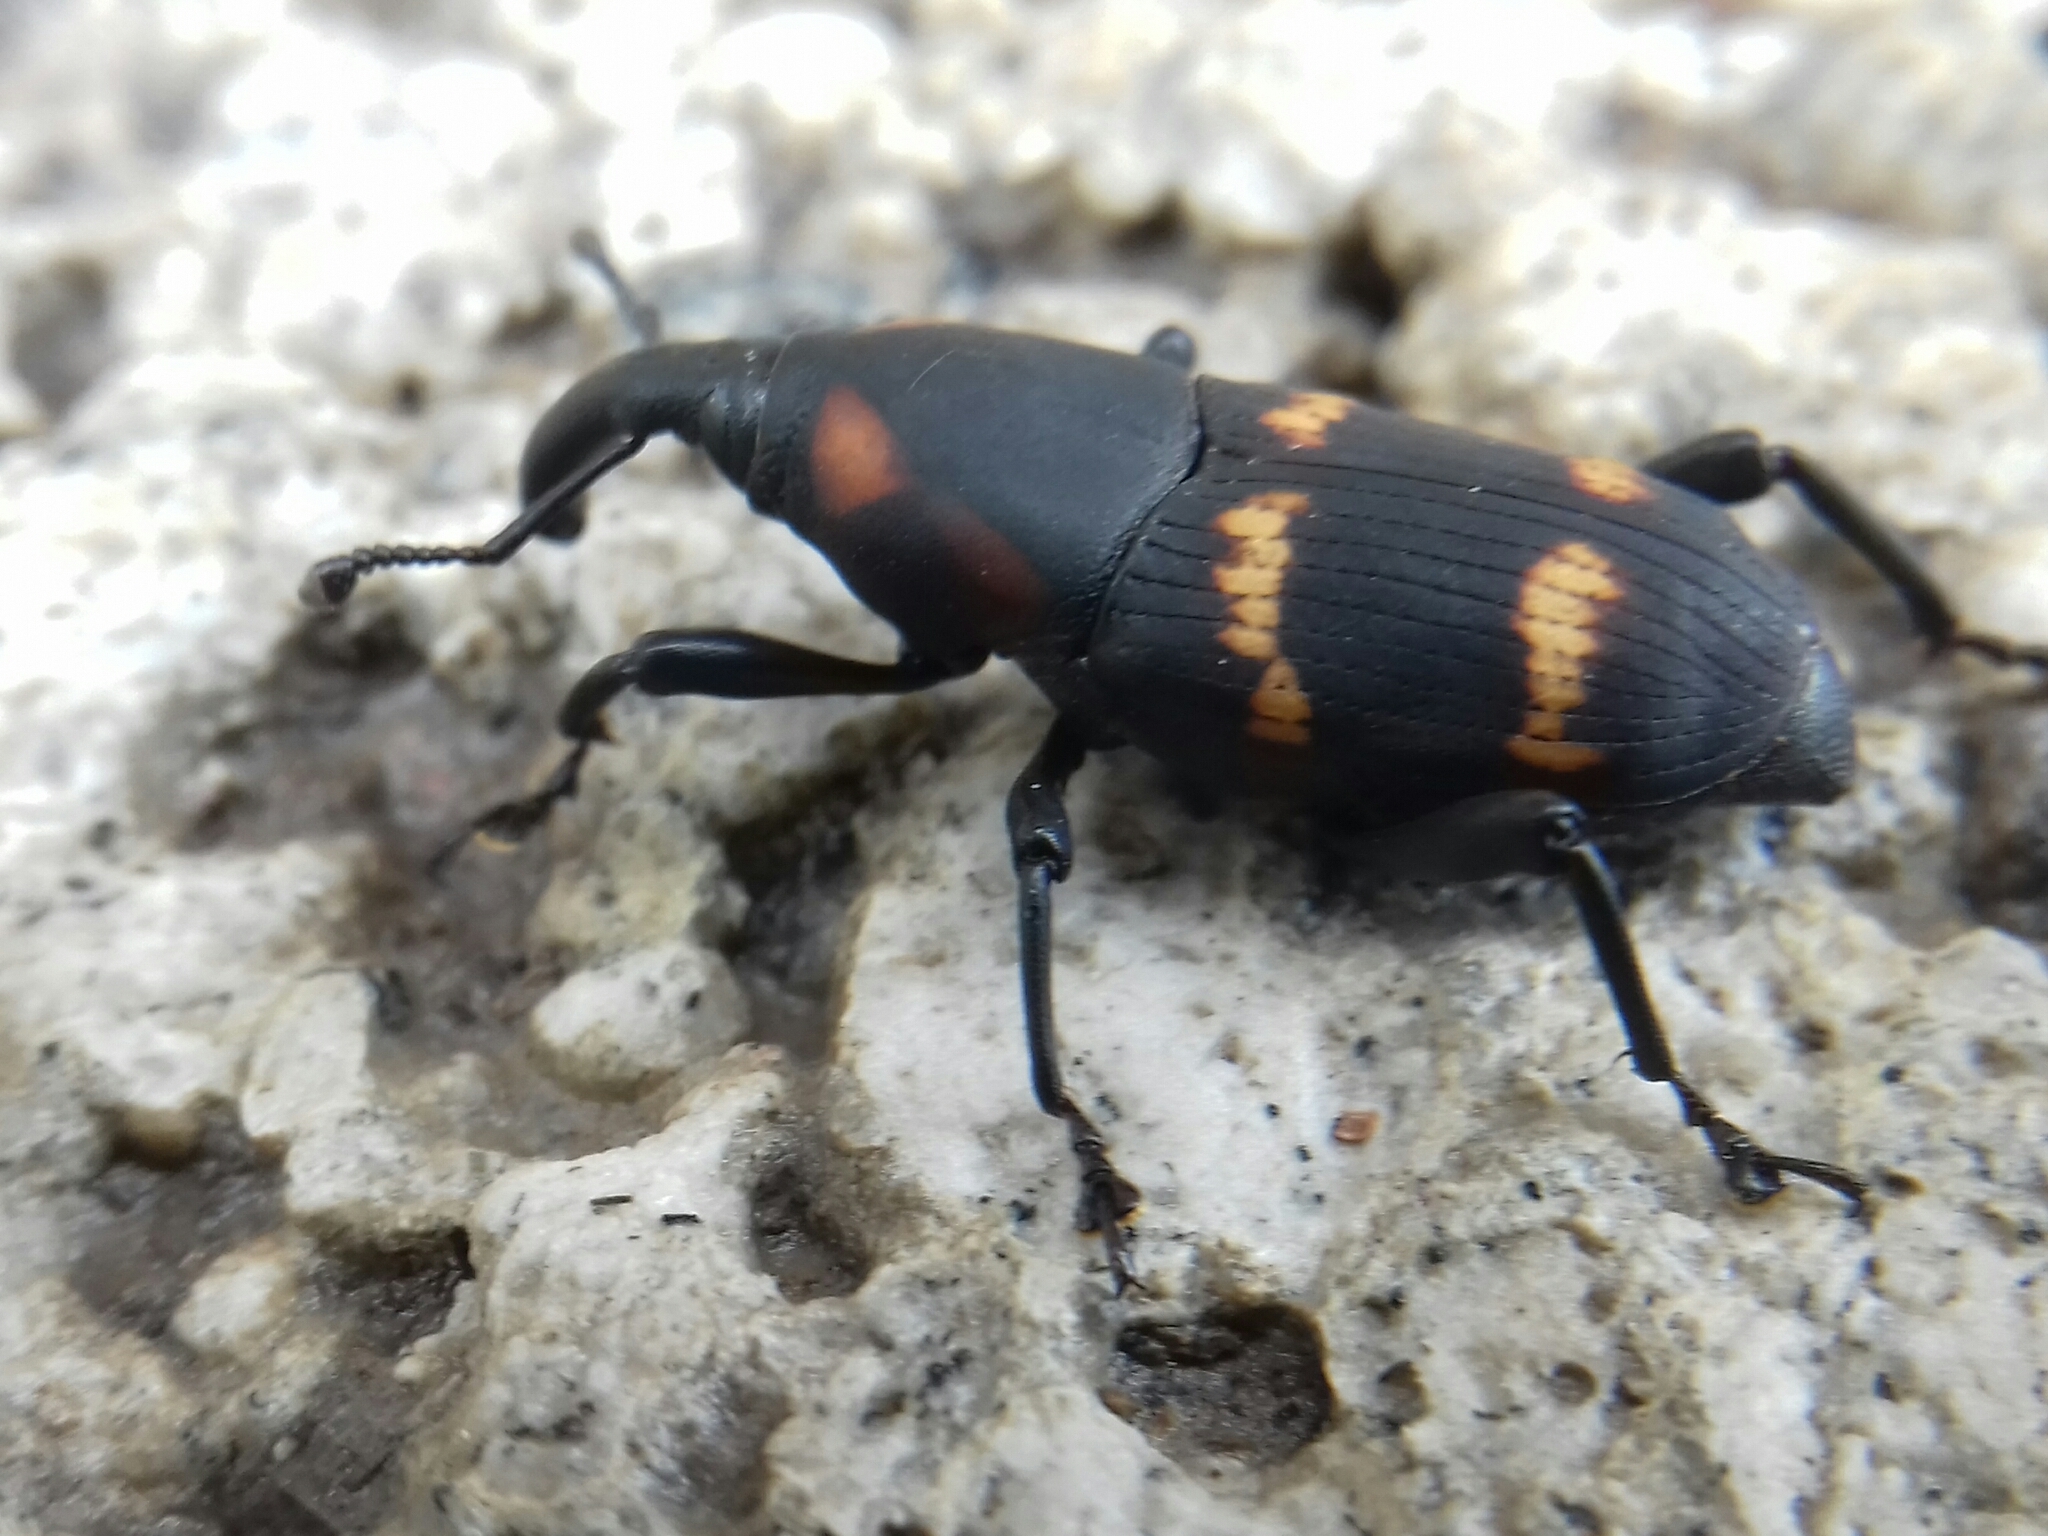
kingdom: Animalia
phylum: Arthropoda
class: Insecta
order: Coleoptera
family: Dryophthoridae
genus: Cactophagus
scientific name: Cactophagus spinolae
